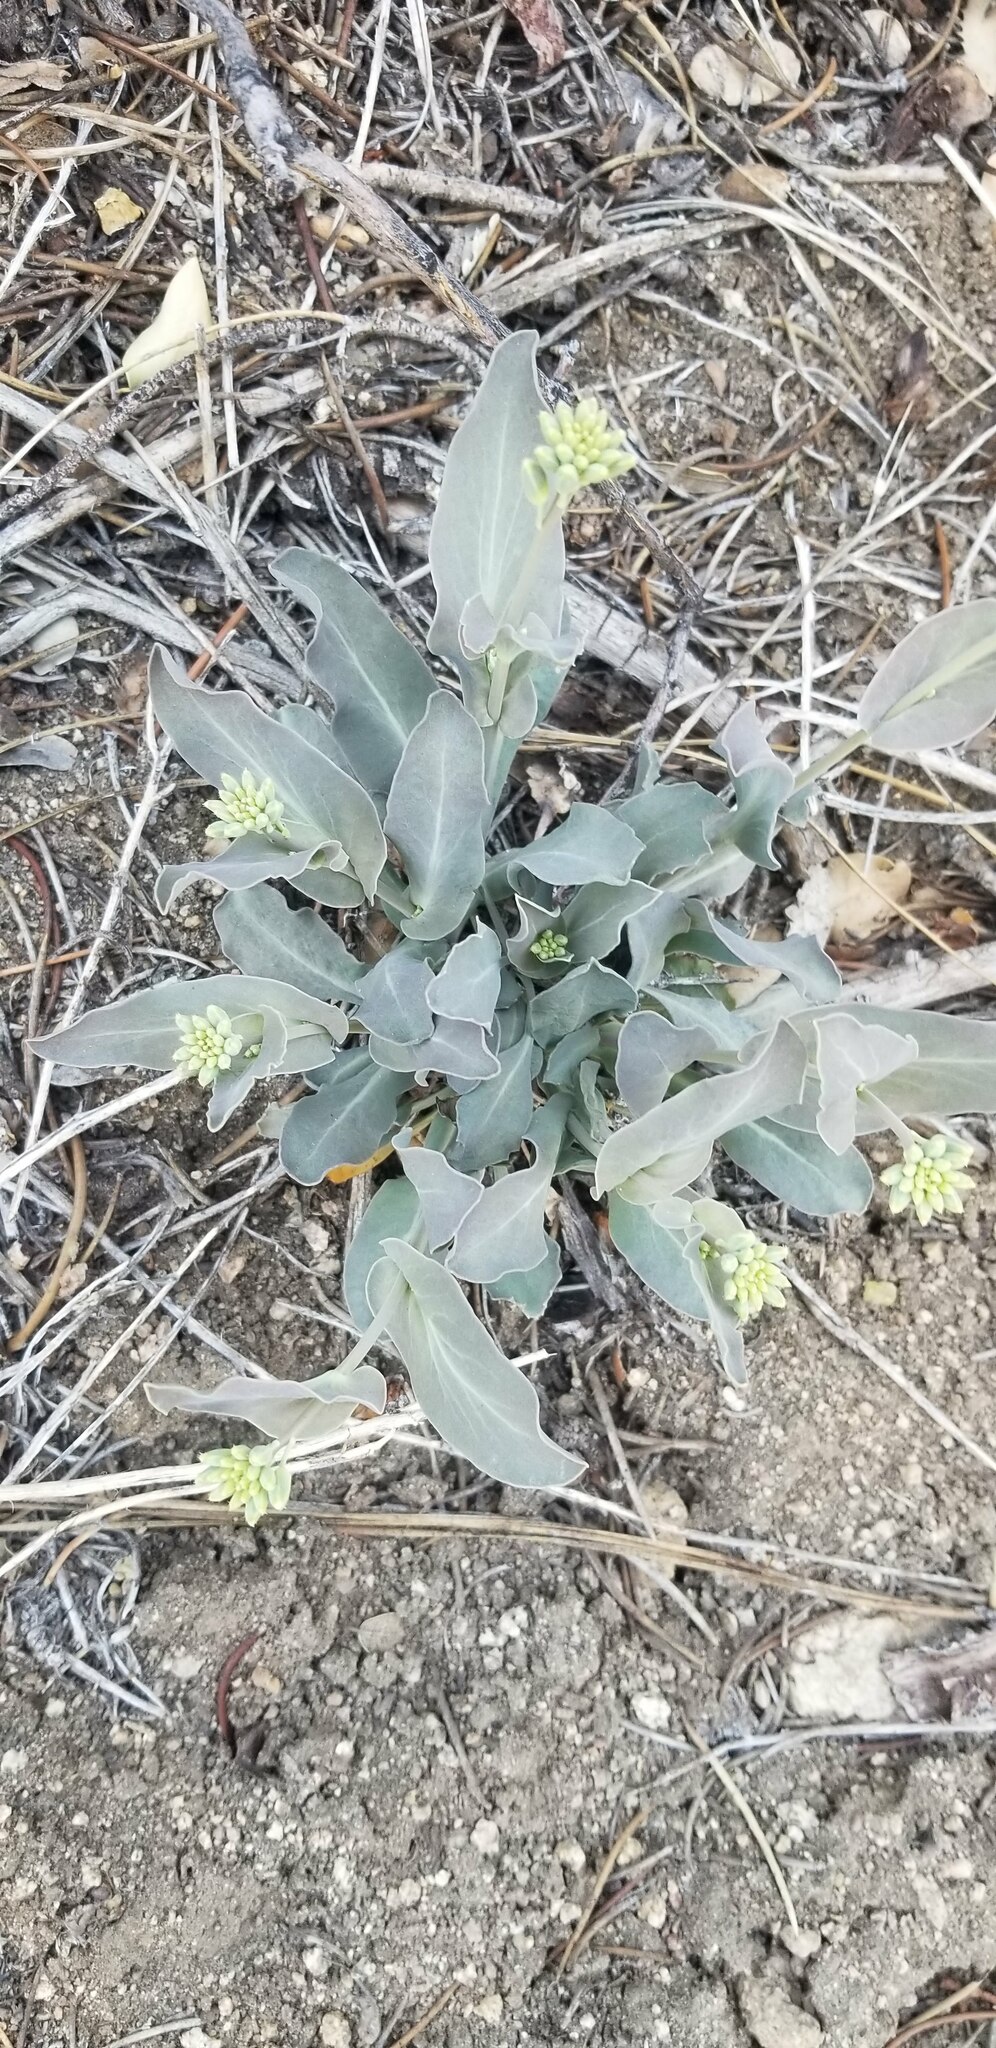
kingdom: Plantae
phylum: Tracheophyta
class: Magnoliopsida
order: Brassicales
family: Brassicaceae
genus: Streptanthus
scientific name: Streptanthus cordatus
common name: Heart-leaf jewel-flower
